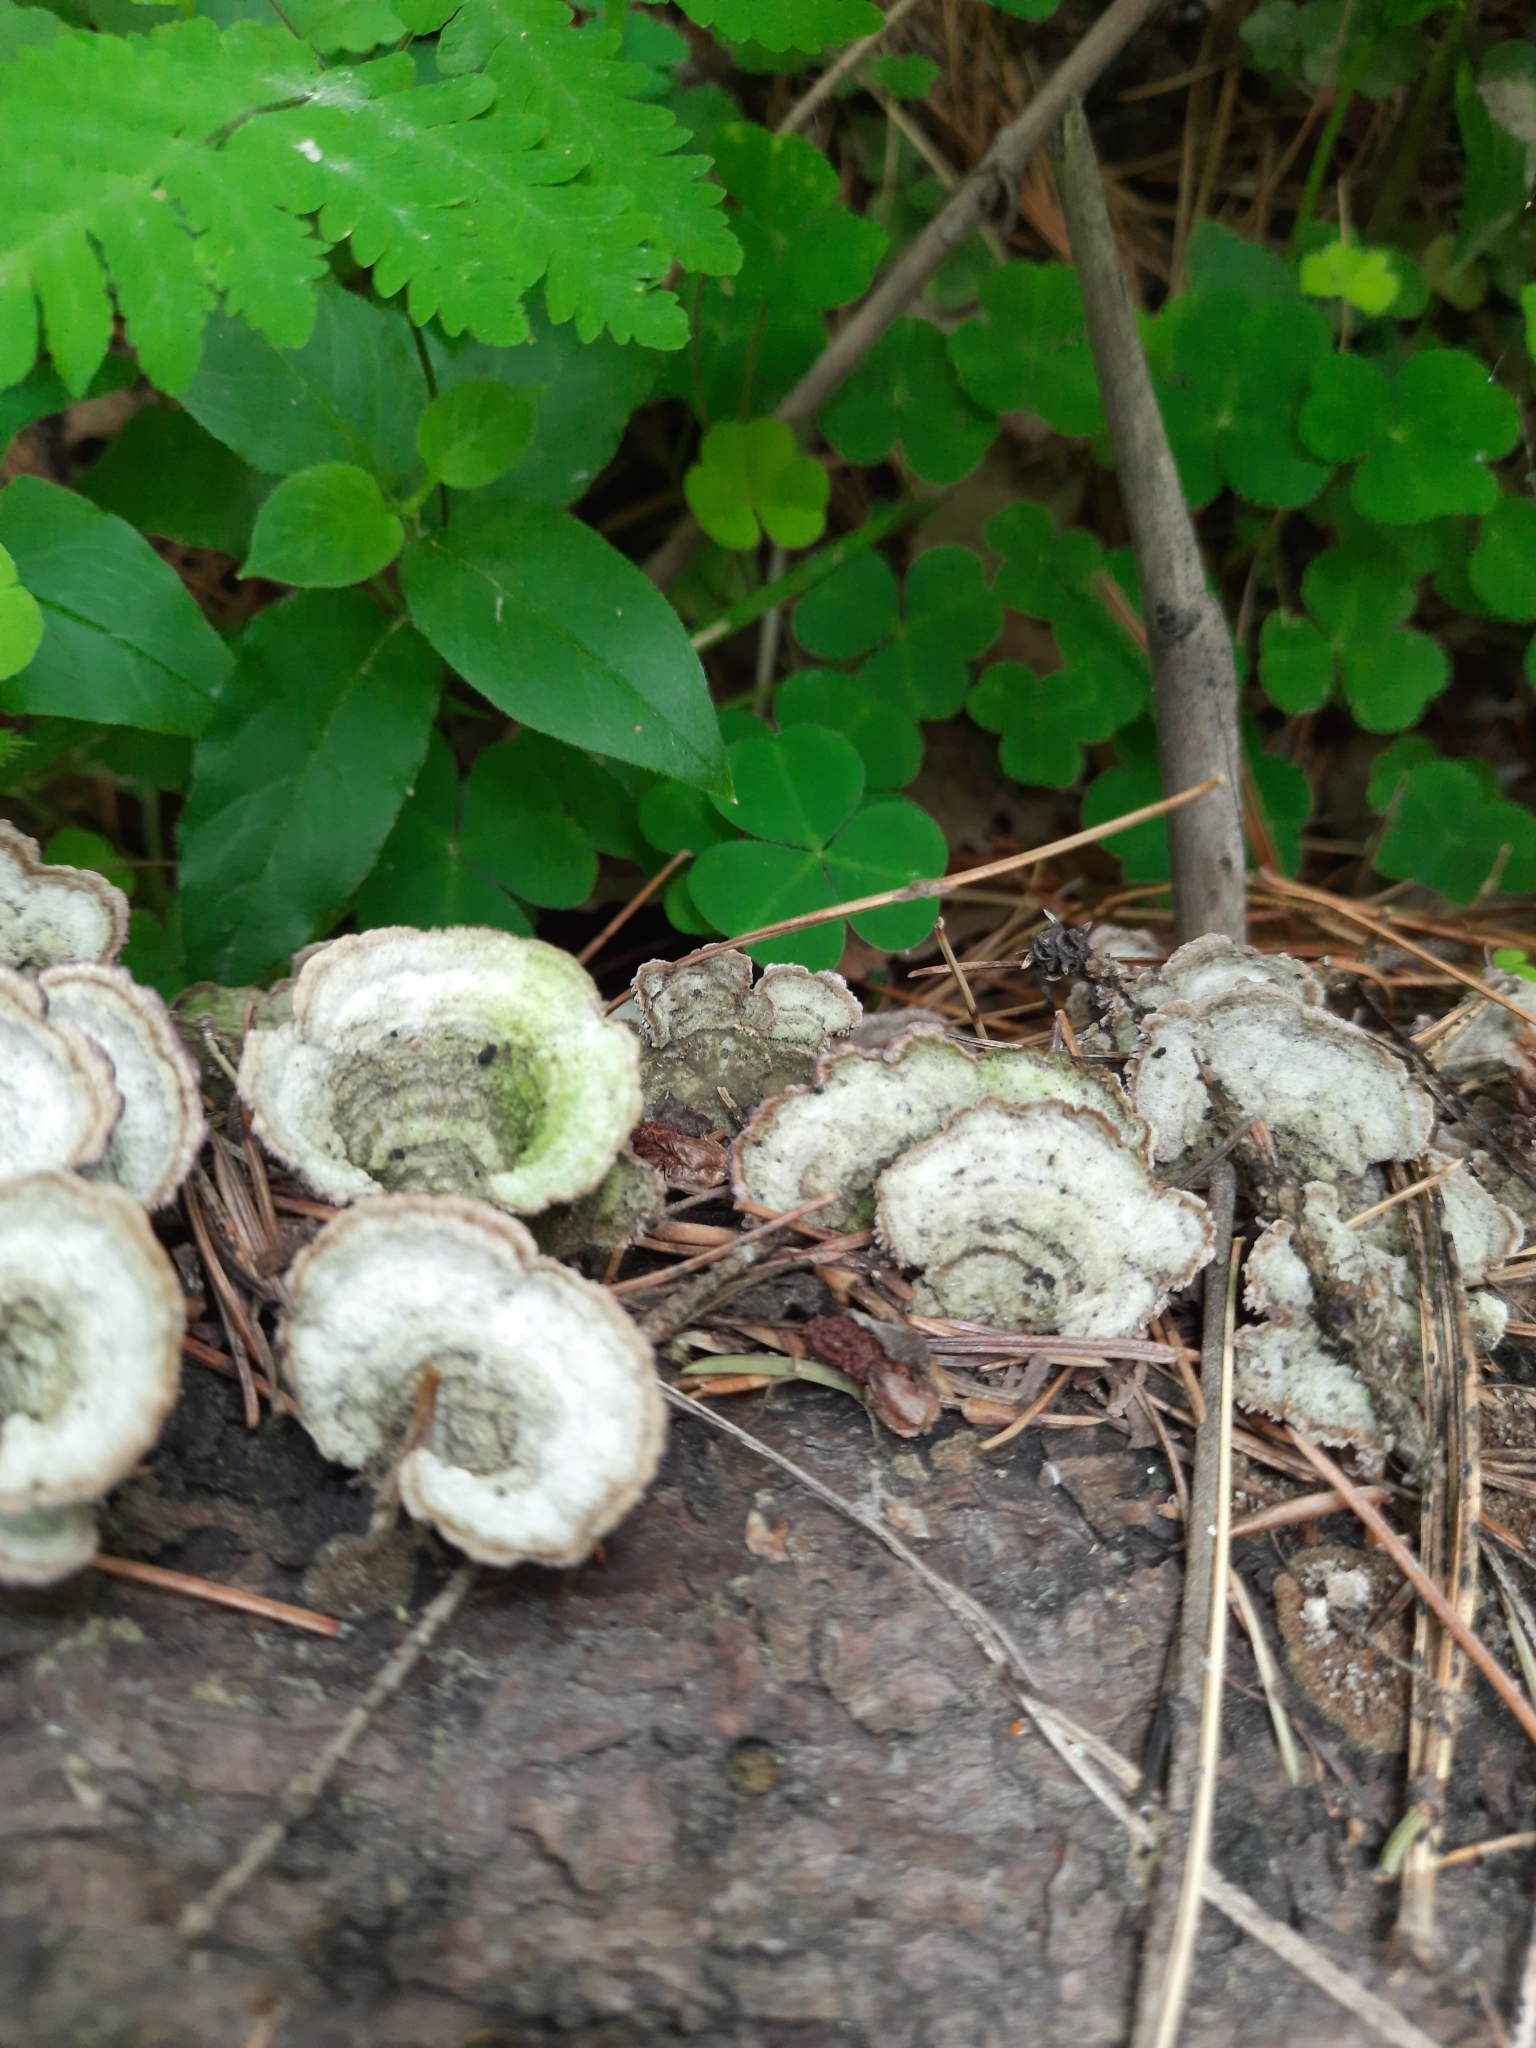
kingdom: Fungi
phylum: Basidiomycota
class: Agaricomycetes
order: Hymenochaetales
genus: Trichaptum
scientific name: Trichaptum fuscoviolaceum
